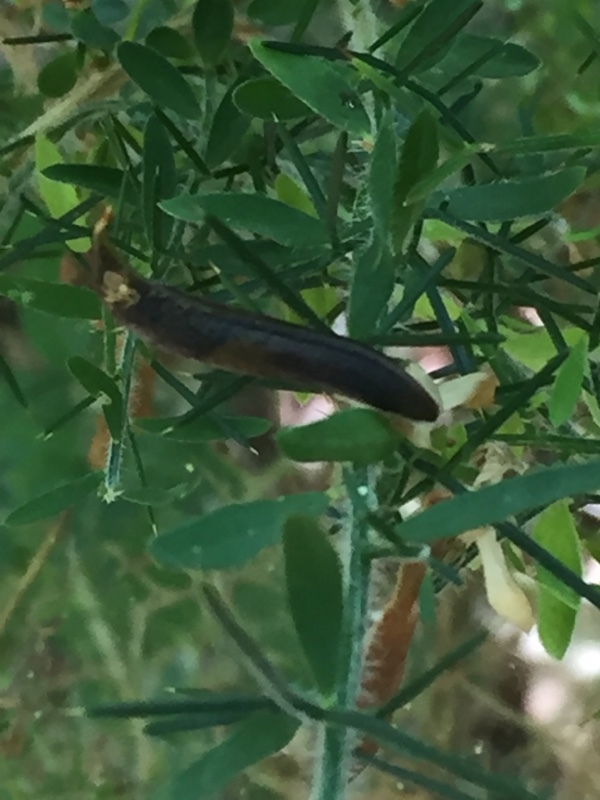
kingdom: Plantae
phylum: Tracheophyta
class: Magnoliopsida
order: Fabales
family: Fabaceae
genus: Genista
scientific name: Genista falcata
